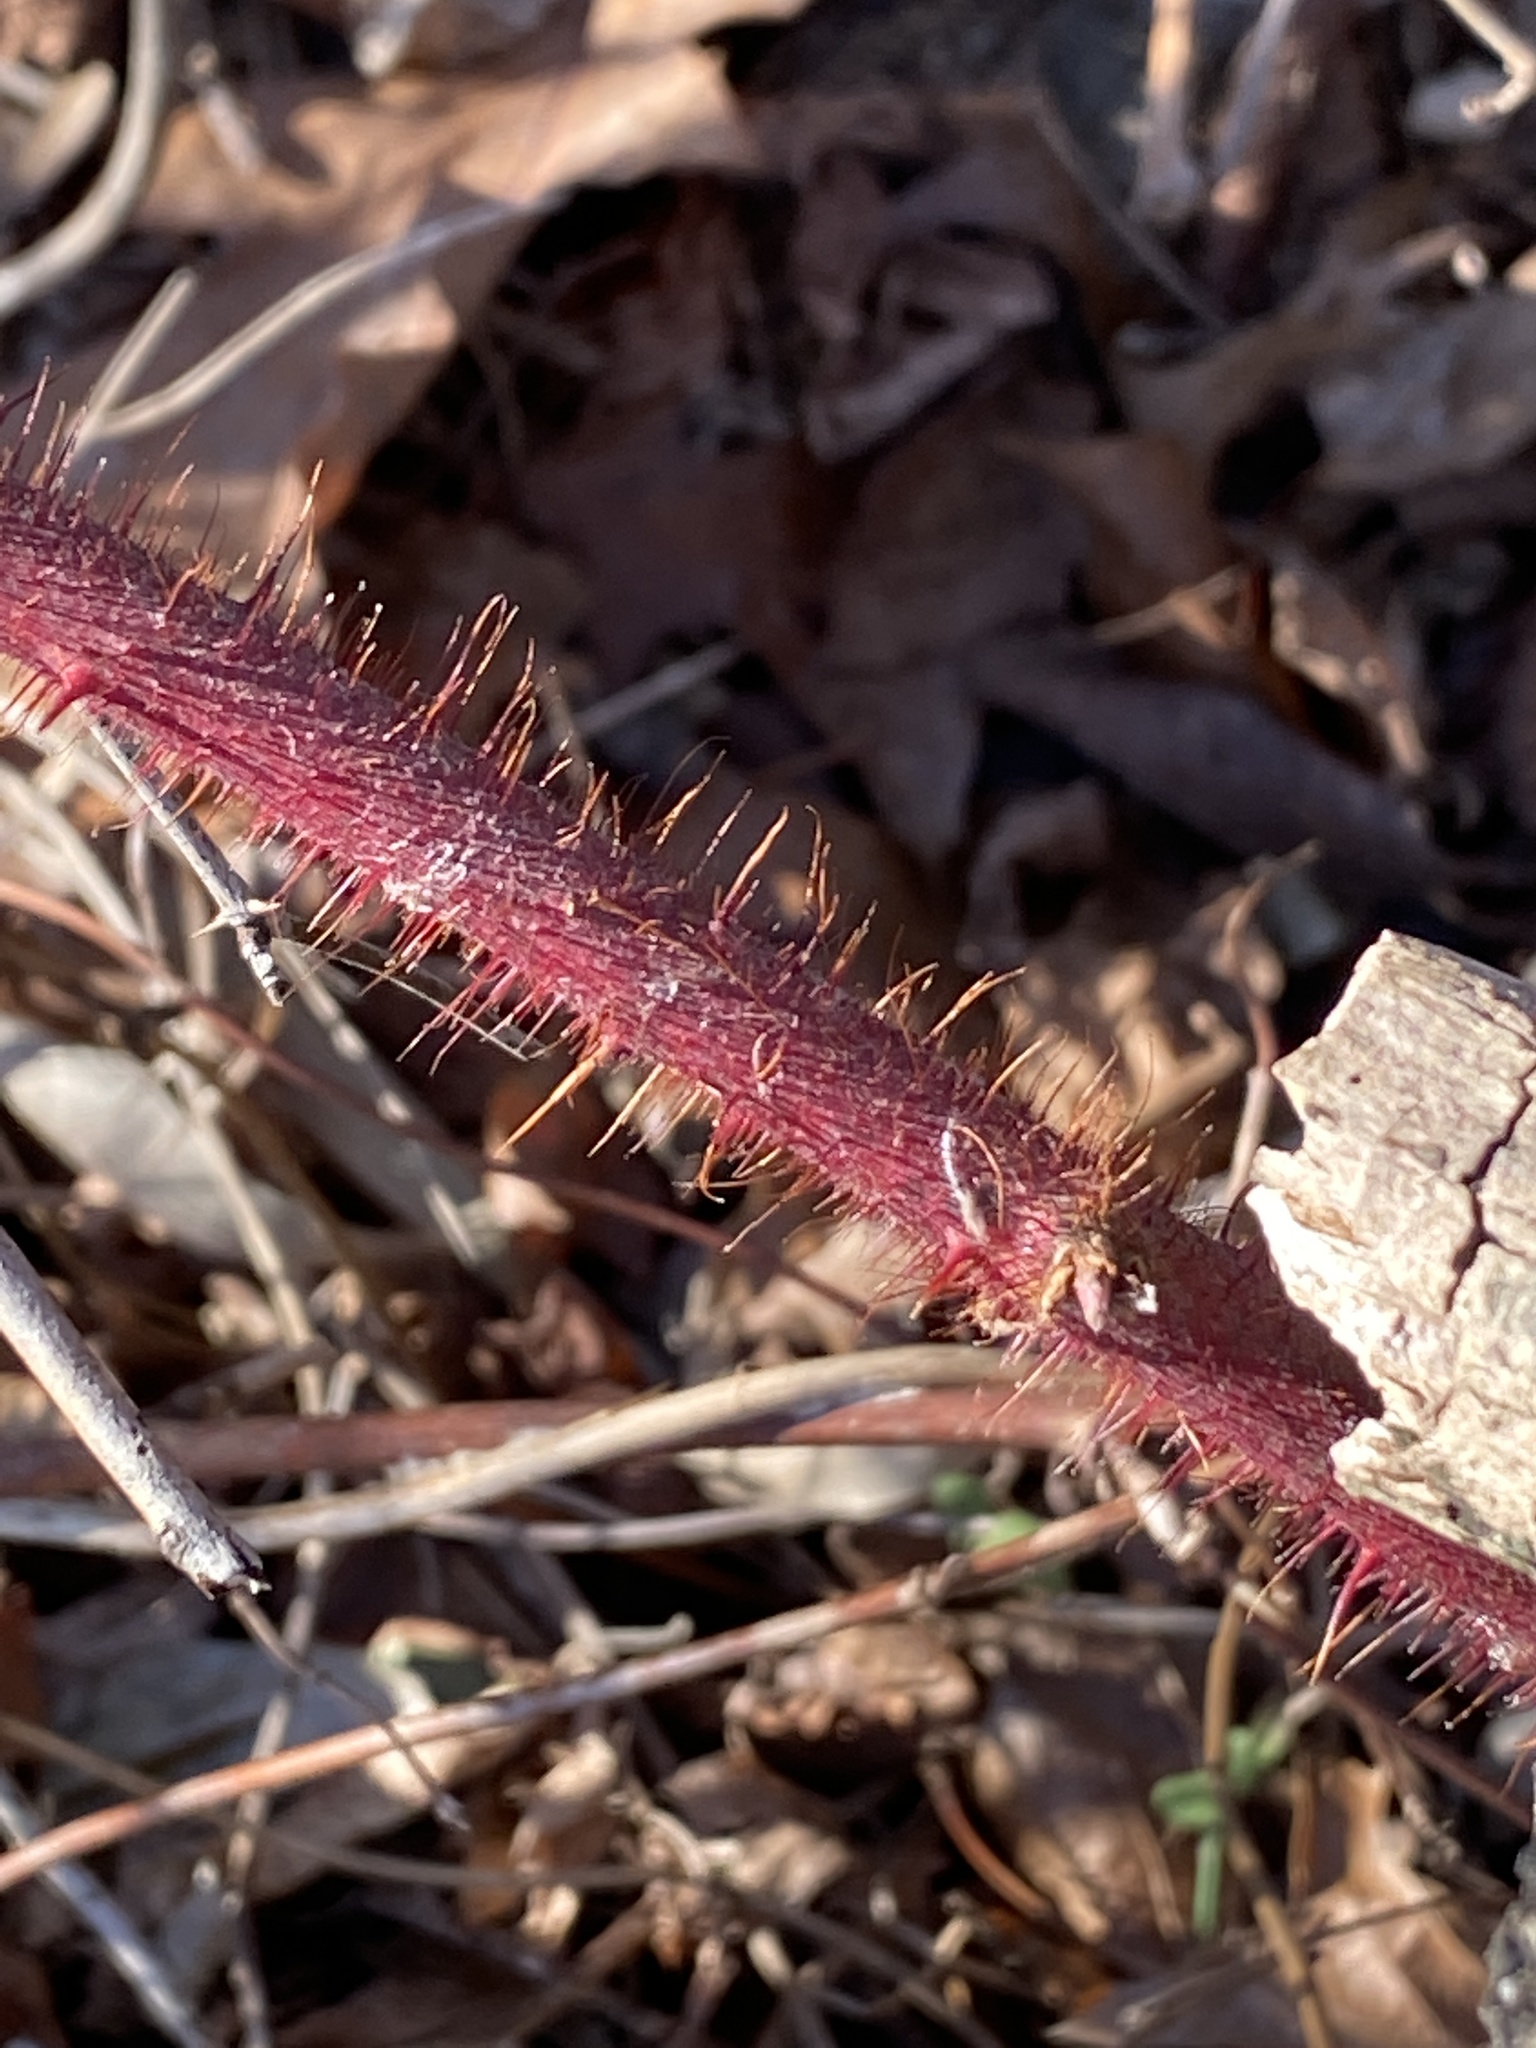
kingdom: Plantae
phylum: Tracheophyta
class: Magnoliopsida
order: Rosales
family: Rosaceae
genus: Rubus
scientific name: Rubus phoenicolasius
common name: Japanese wineberry
